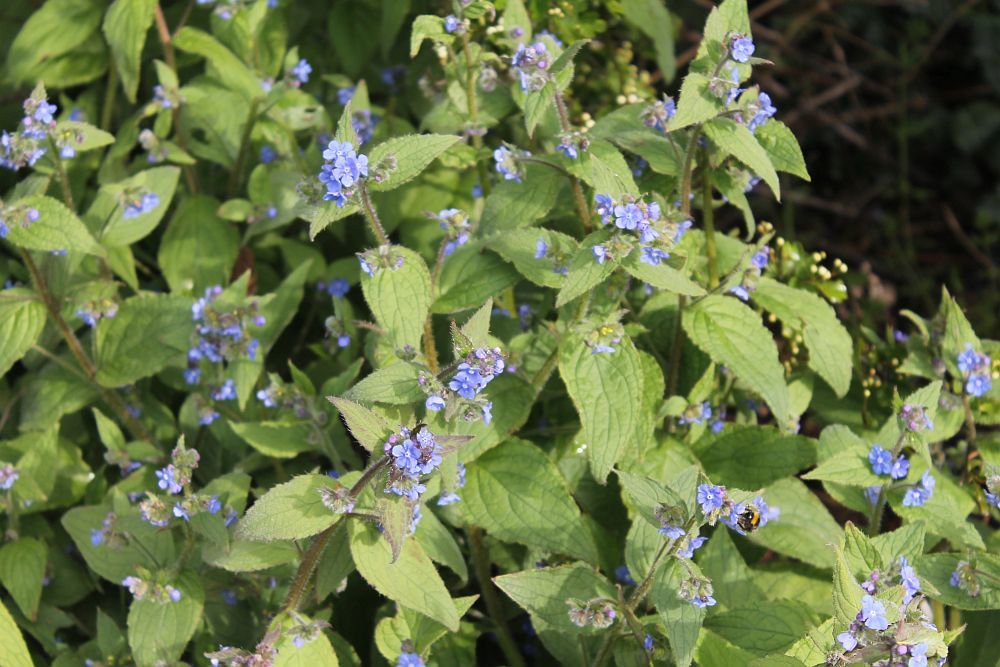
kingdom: Plantae
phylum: Tracheophyta
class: Magnoliopsida
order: Boraginales
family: Boraginaceae
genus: Pentaglottis
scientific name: Pentaglottis sempervirens
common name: Green alkanet
